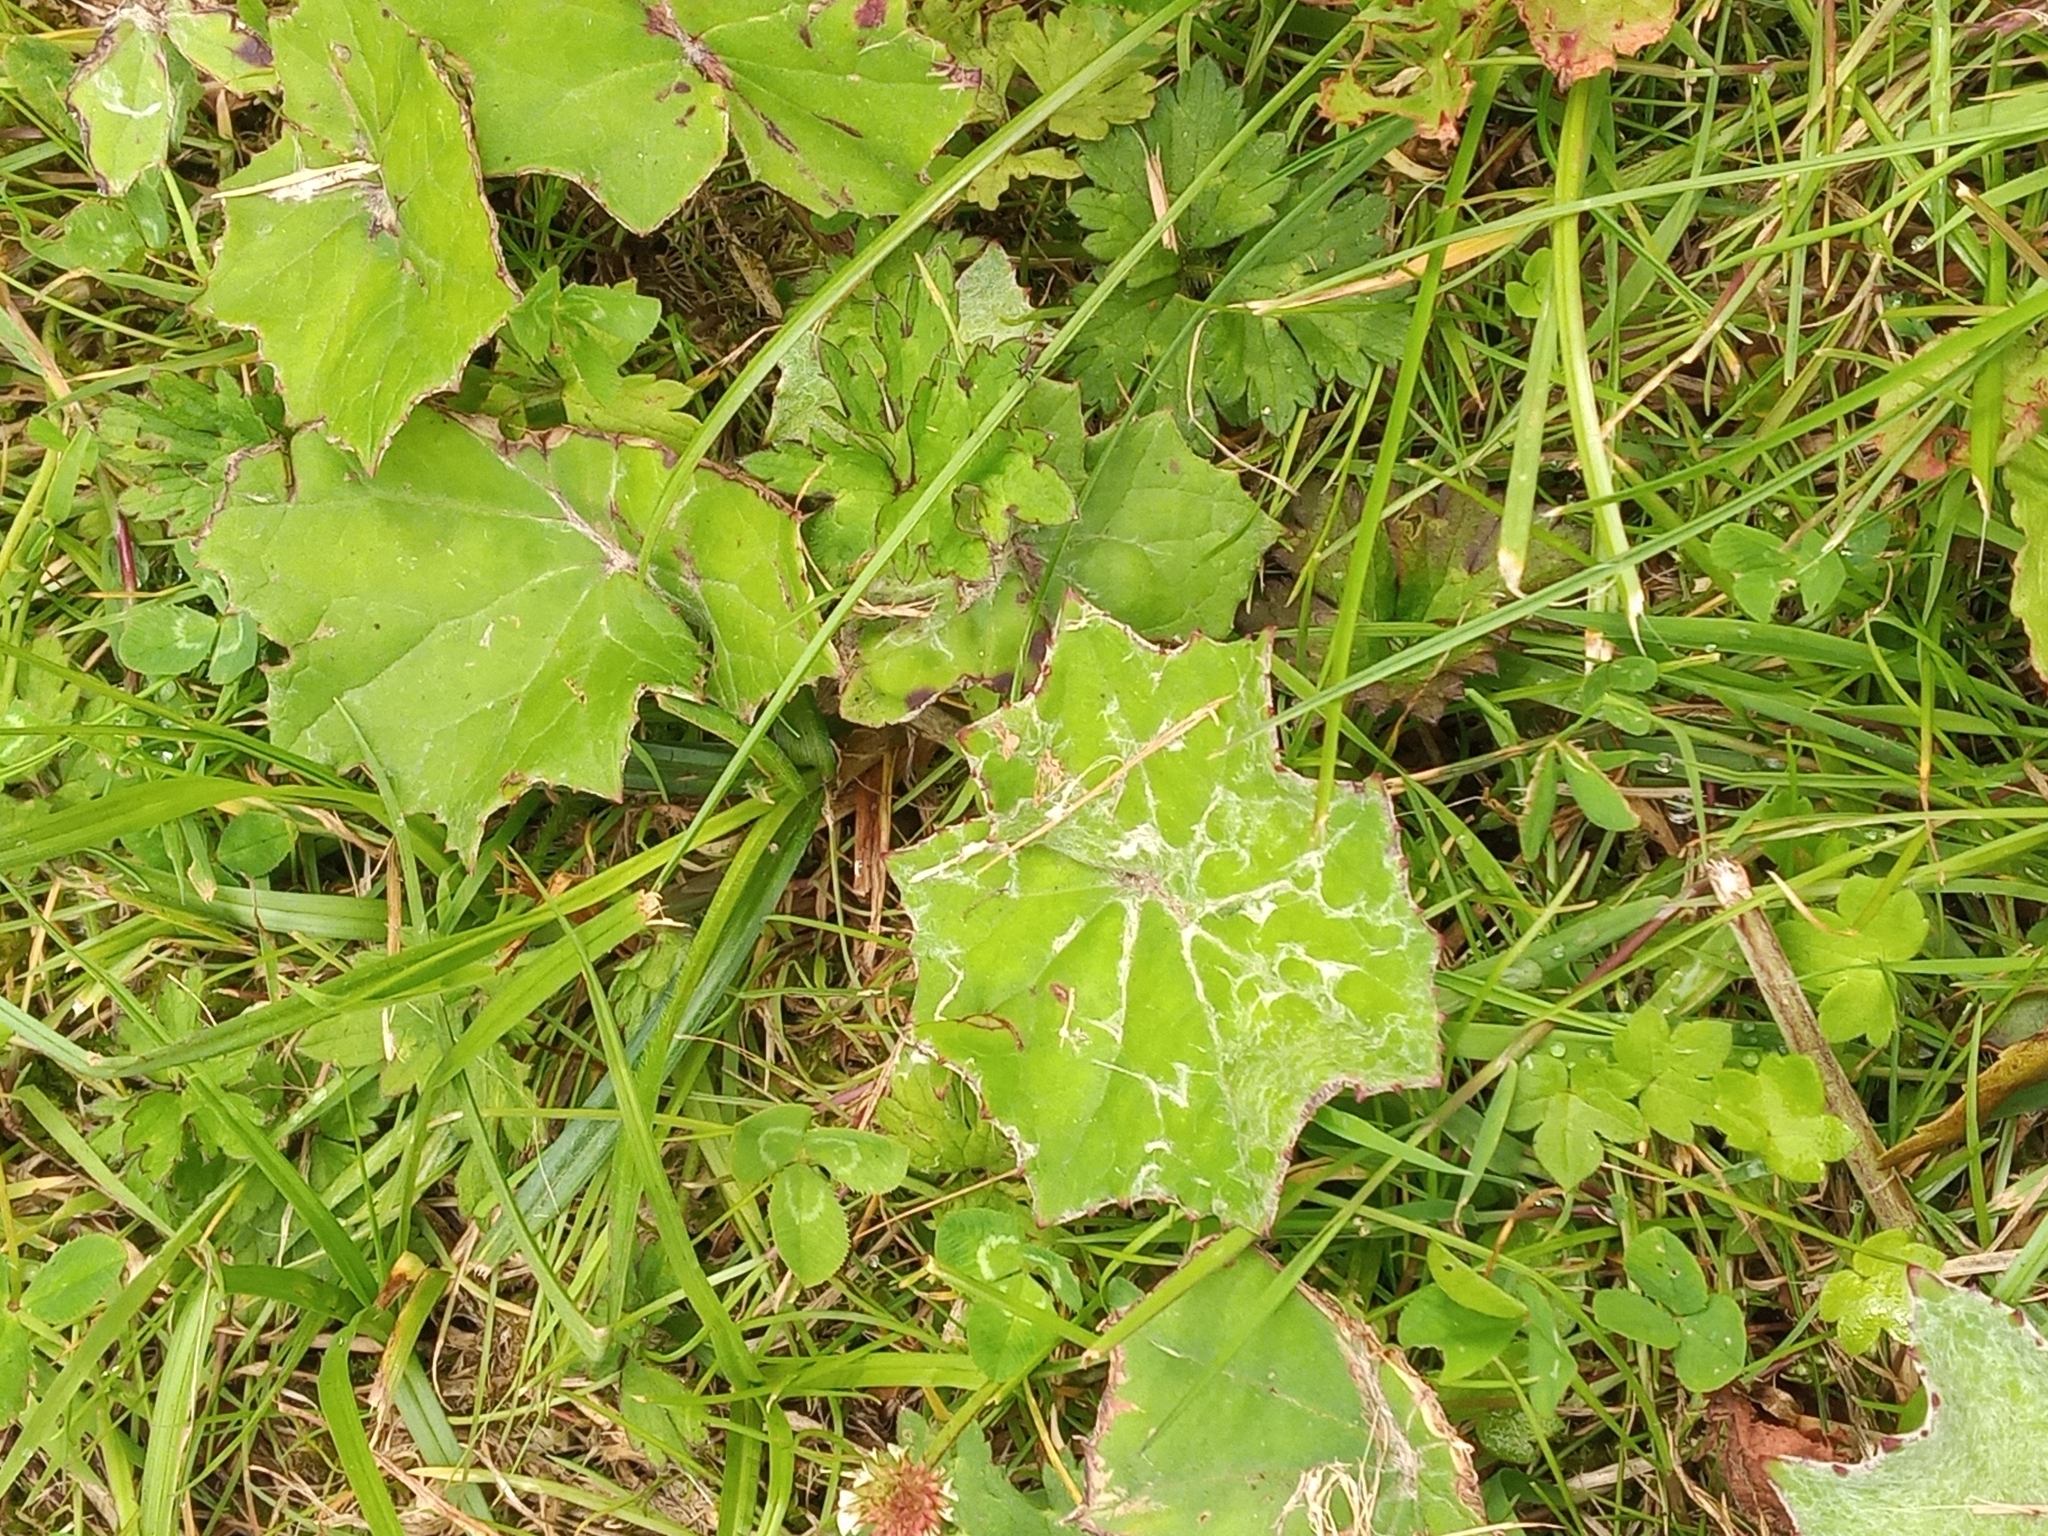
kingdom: Plantae
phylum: Tracheophyta
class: Magnoliopsida
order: Asterales
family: Asteraceae
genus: Tussilago
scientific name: Tussilago farfara
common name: Coltsfoot
